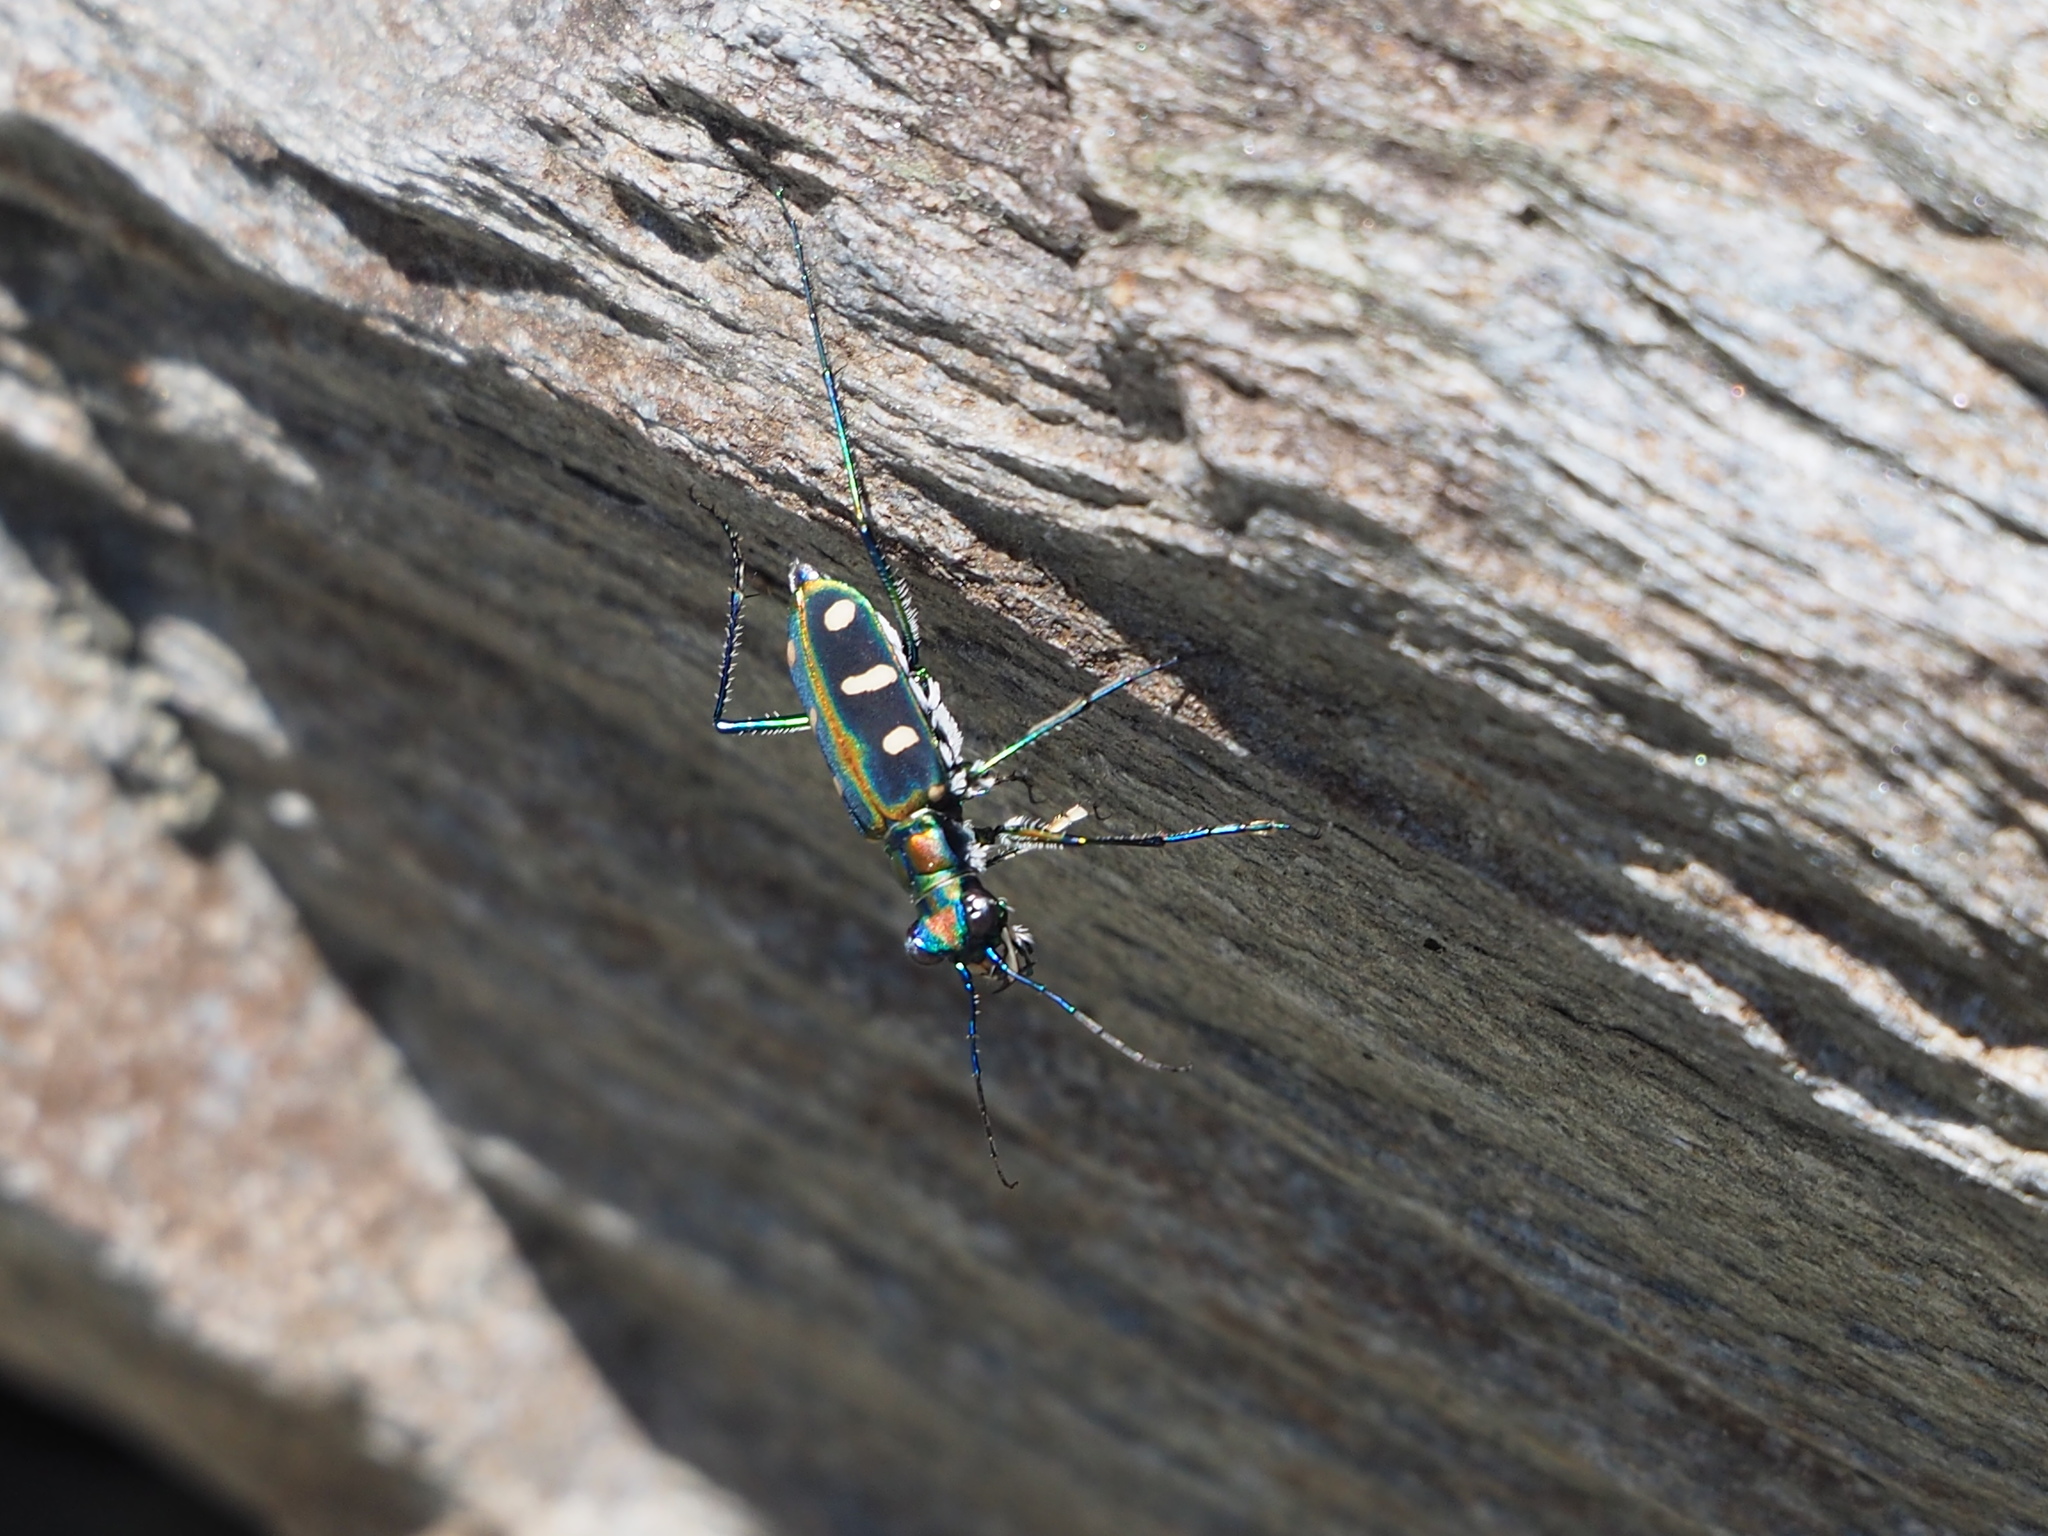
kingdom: Animalia
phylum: Arthropoda
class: Insecta
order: Coleoptera
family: Carabidae
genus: Cicindela
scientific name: Cicindela batesi
